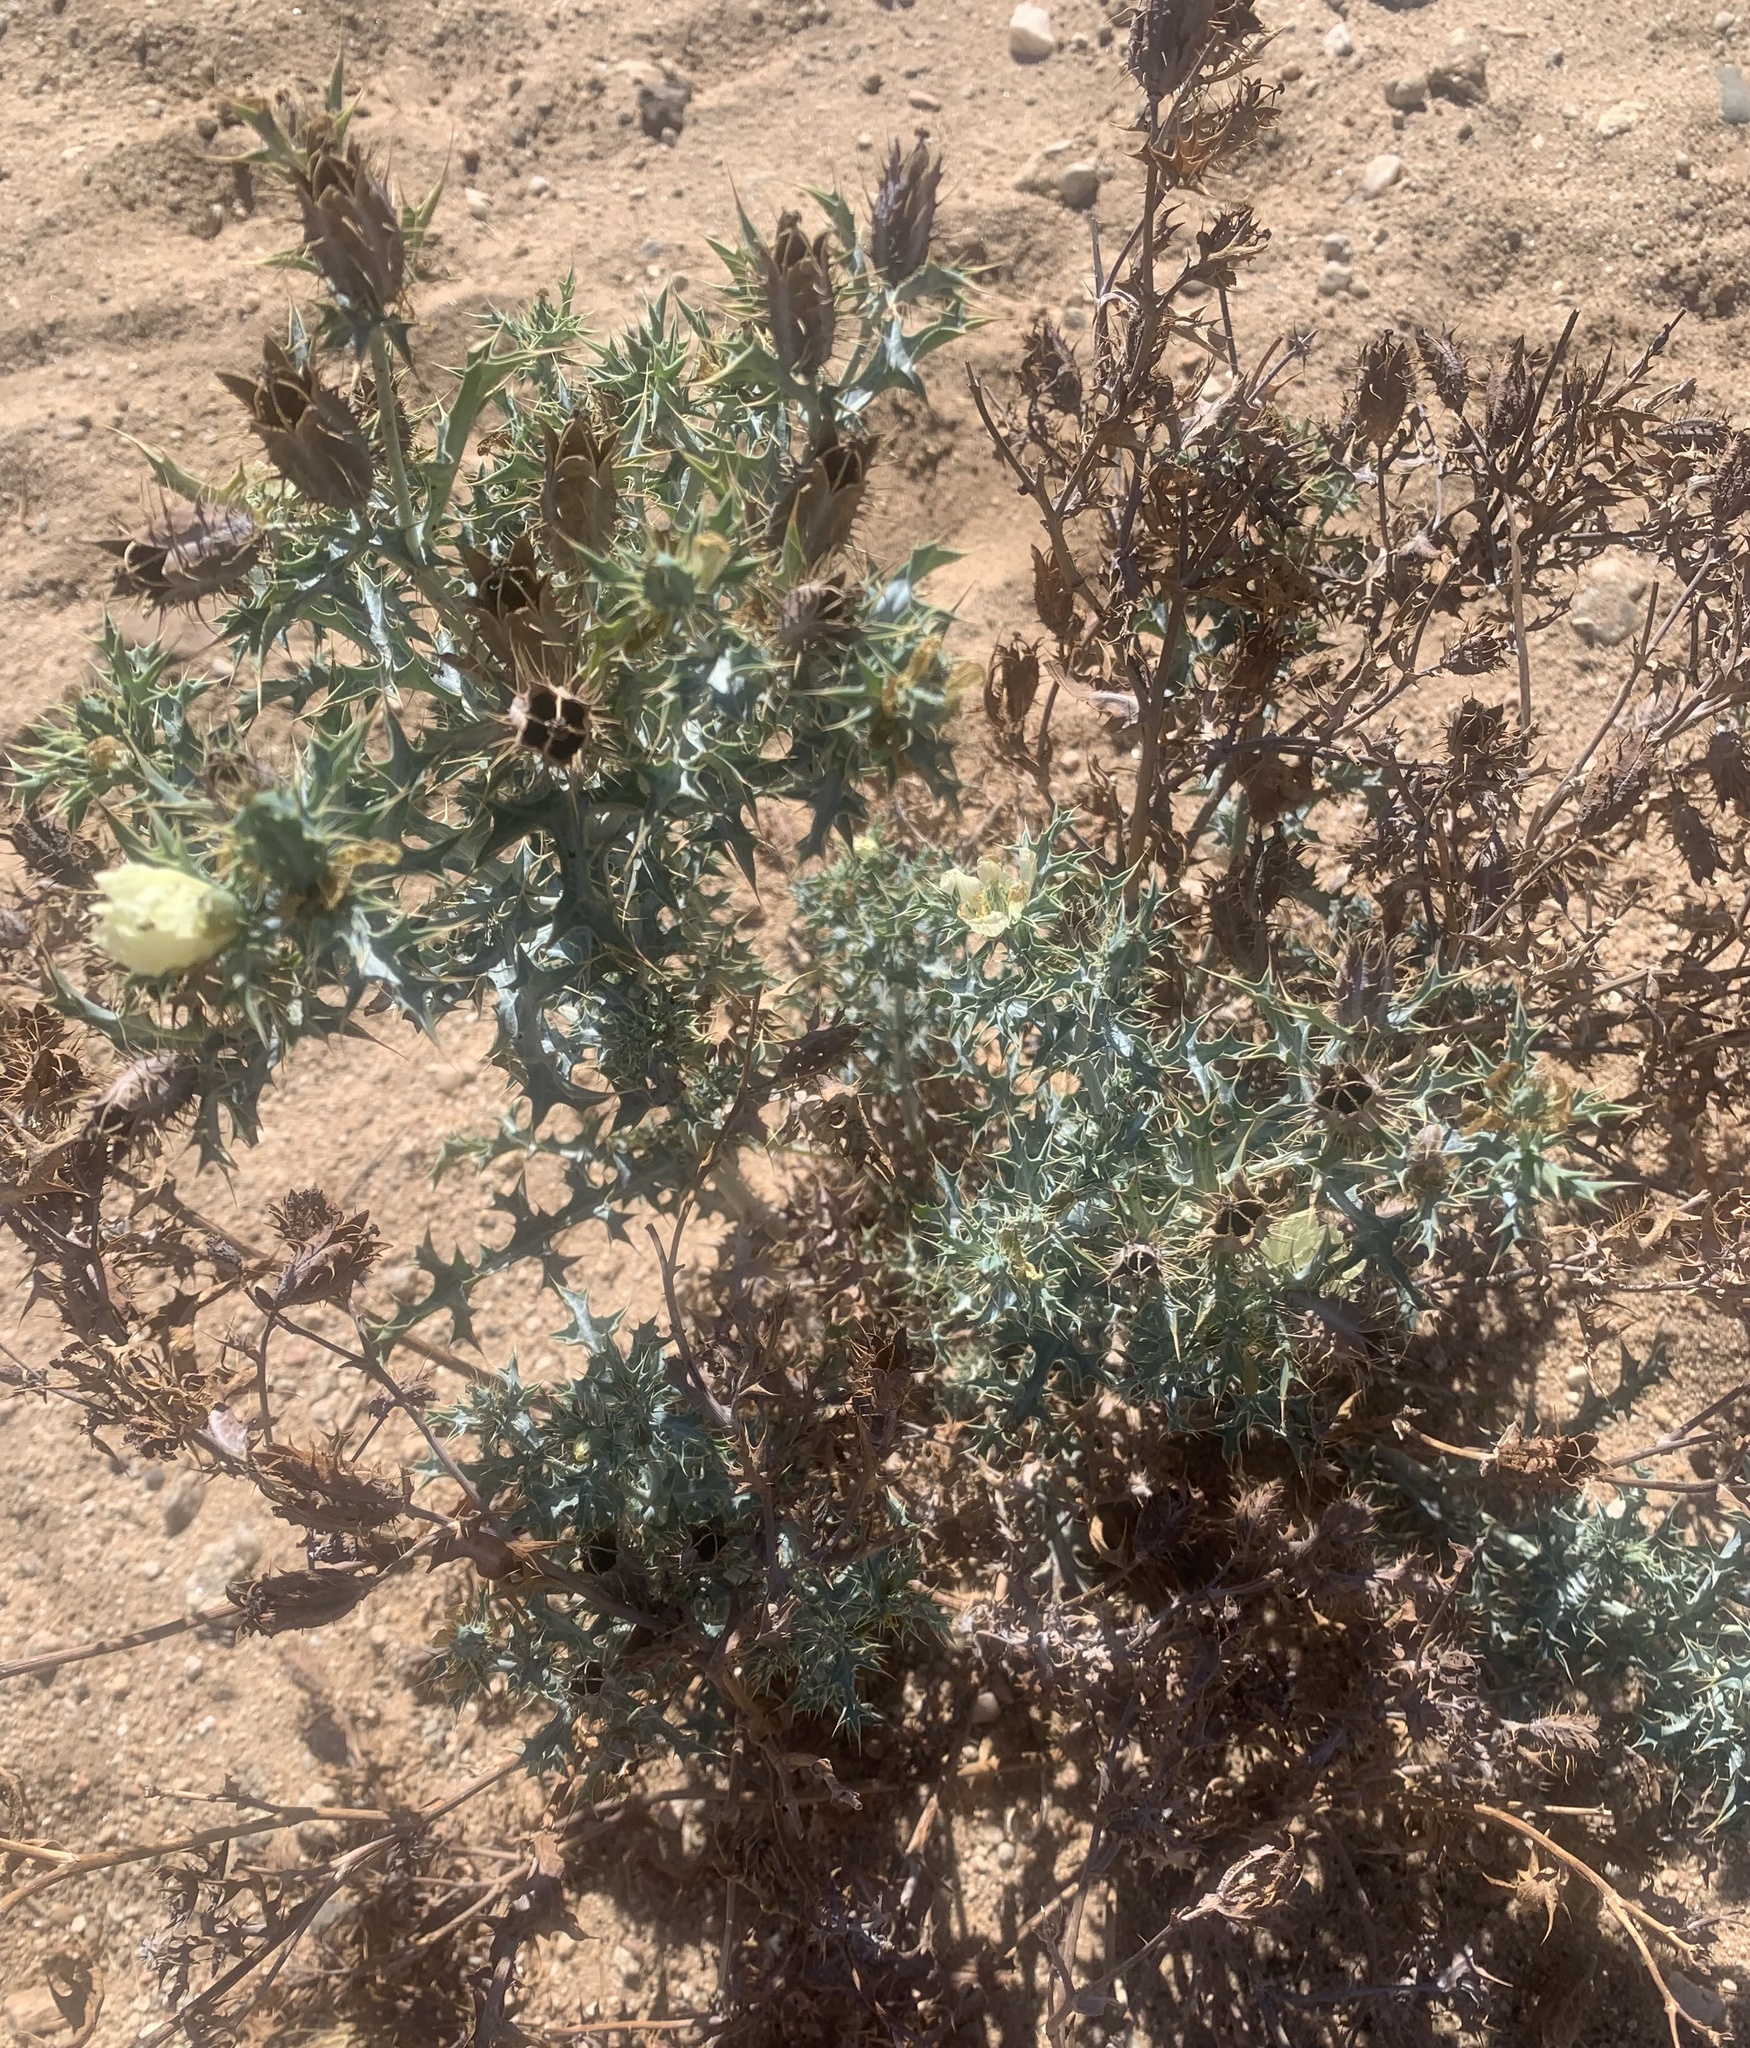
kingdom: Plantae
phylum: Tracheophyta
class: Magnoliopsida
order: Ranunculales
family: Papaveraceae
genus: Argemone
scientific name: Argemone ochroleuca
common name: White-flower mexican-poppy
